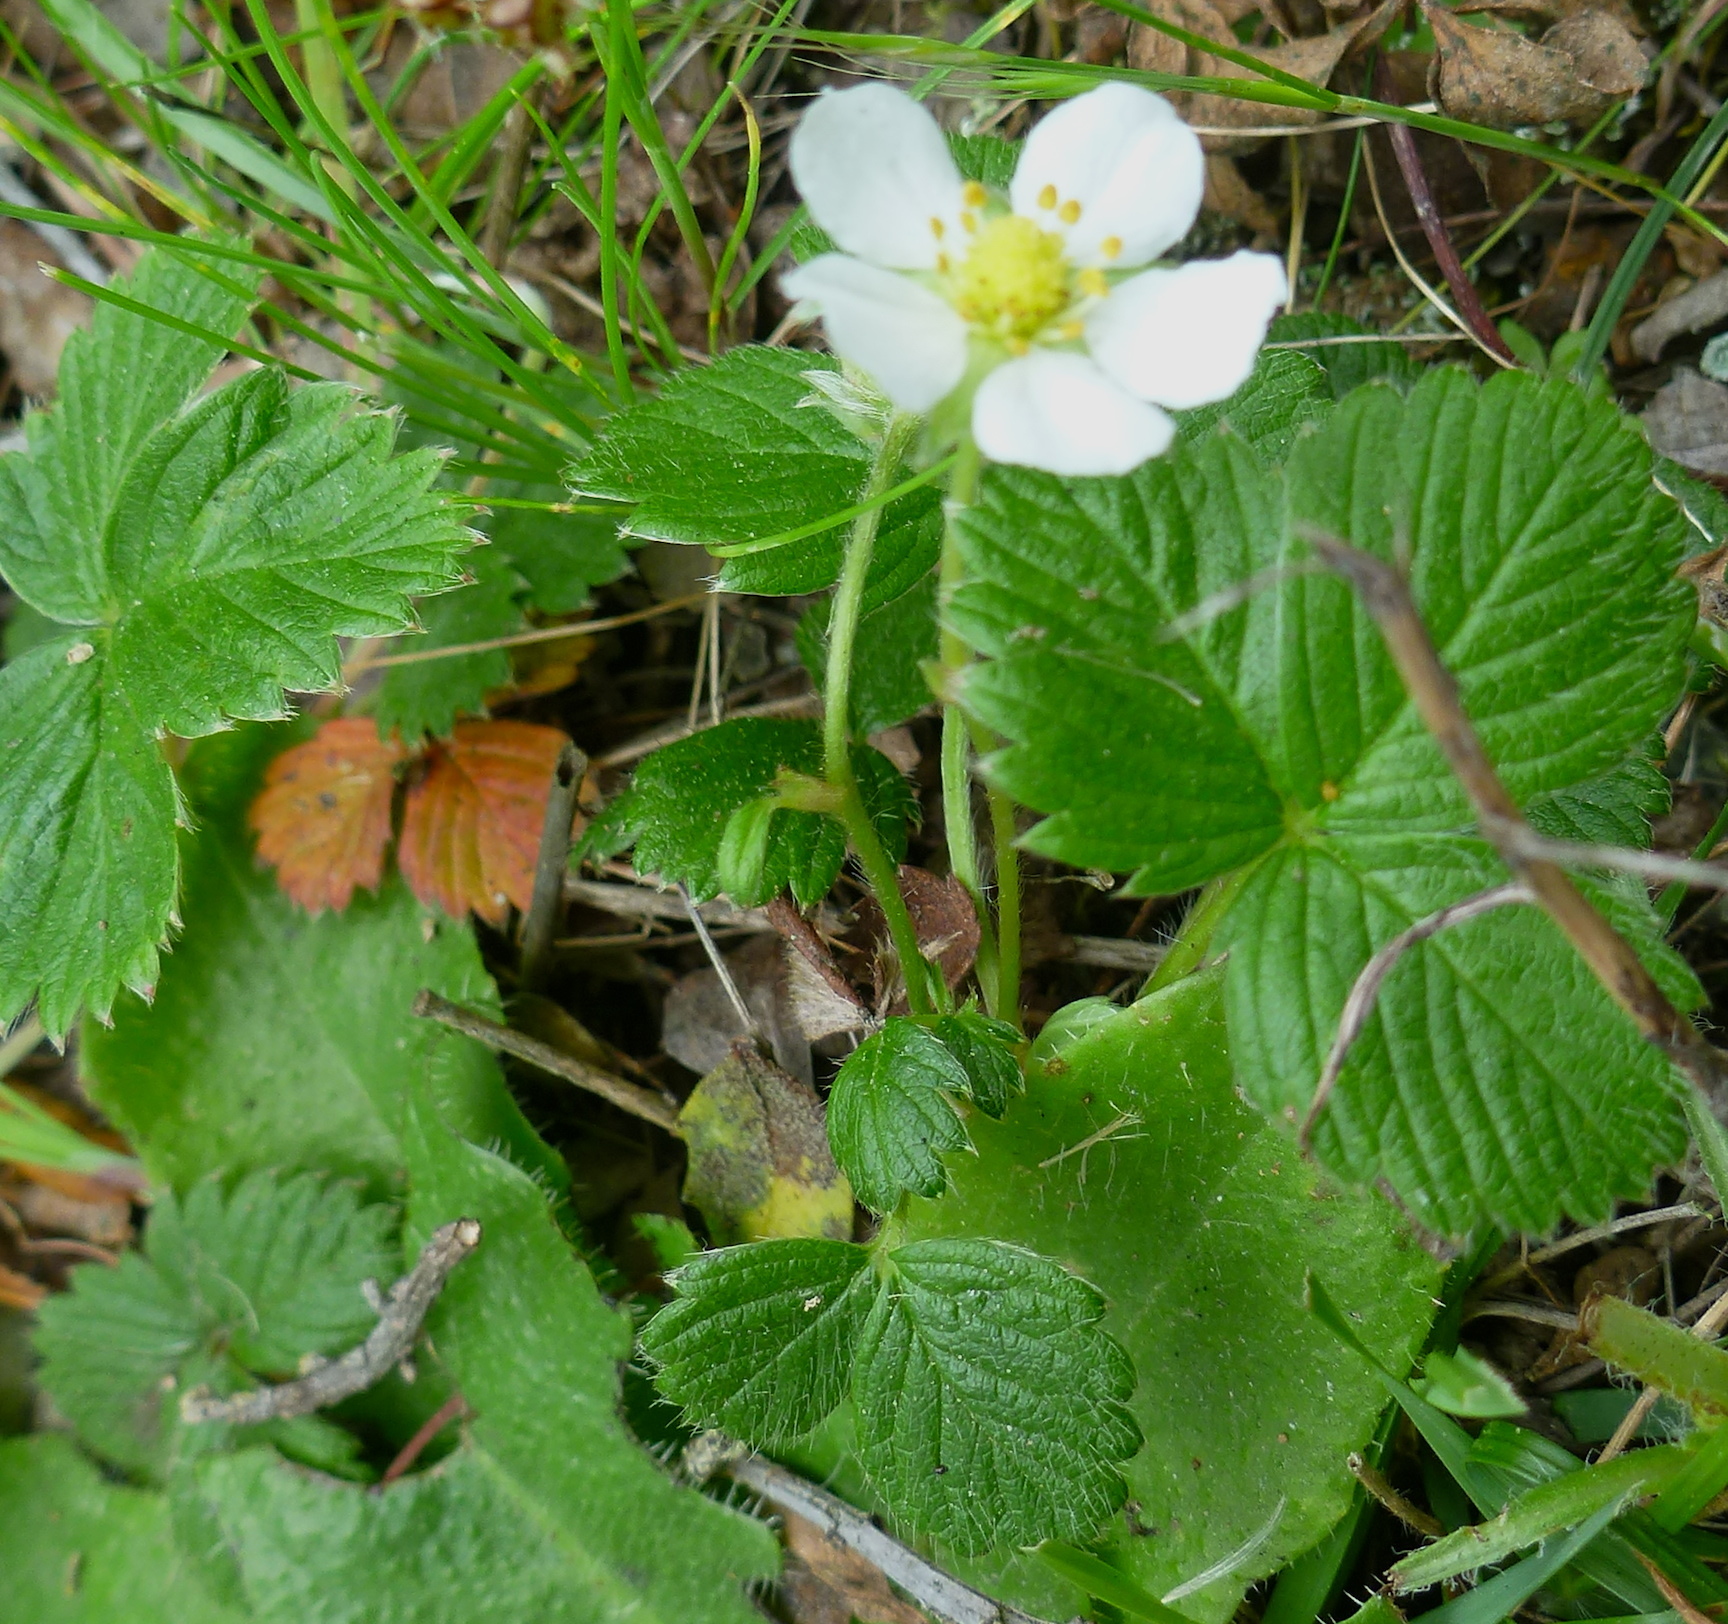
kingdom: Plantae
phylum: Tracheophyta
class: Magnoliopsida
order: Rosales
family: Rosaceae
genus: Fragaria
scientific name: Fragaria vesca
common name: Wild strawberry
